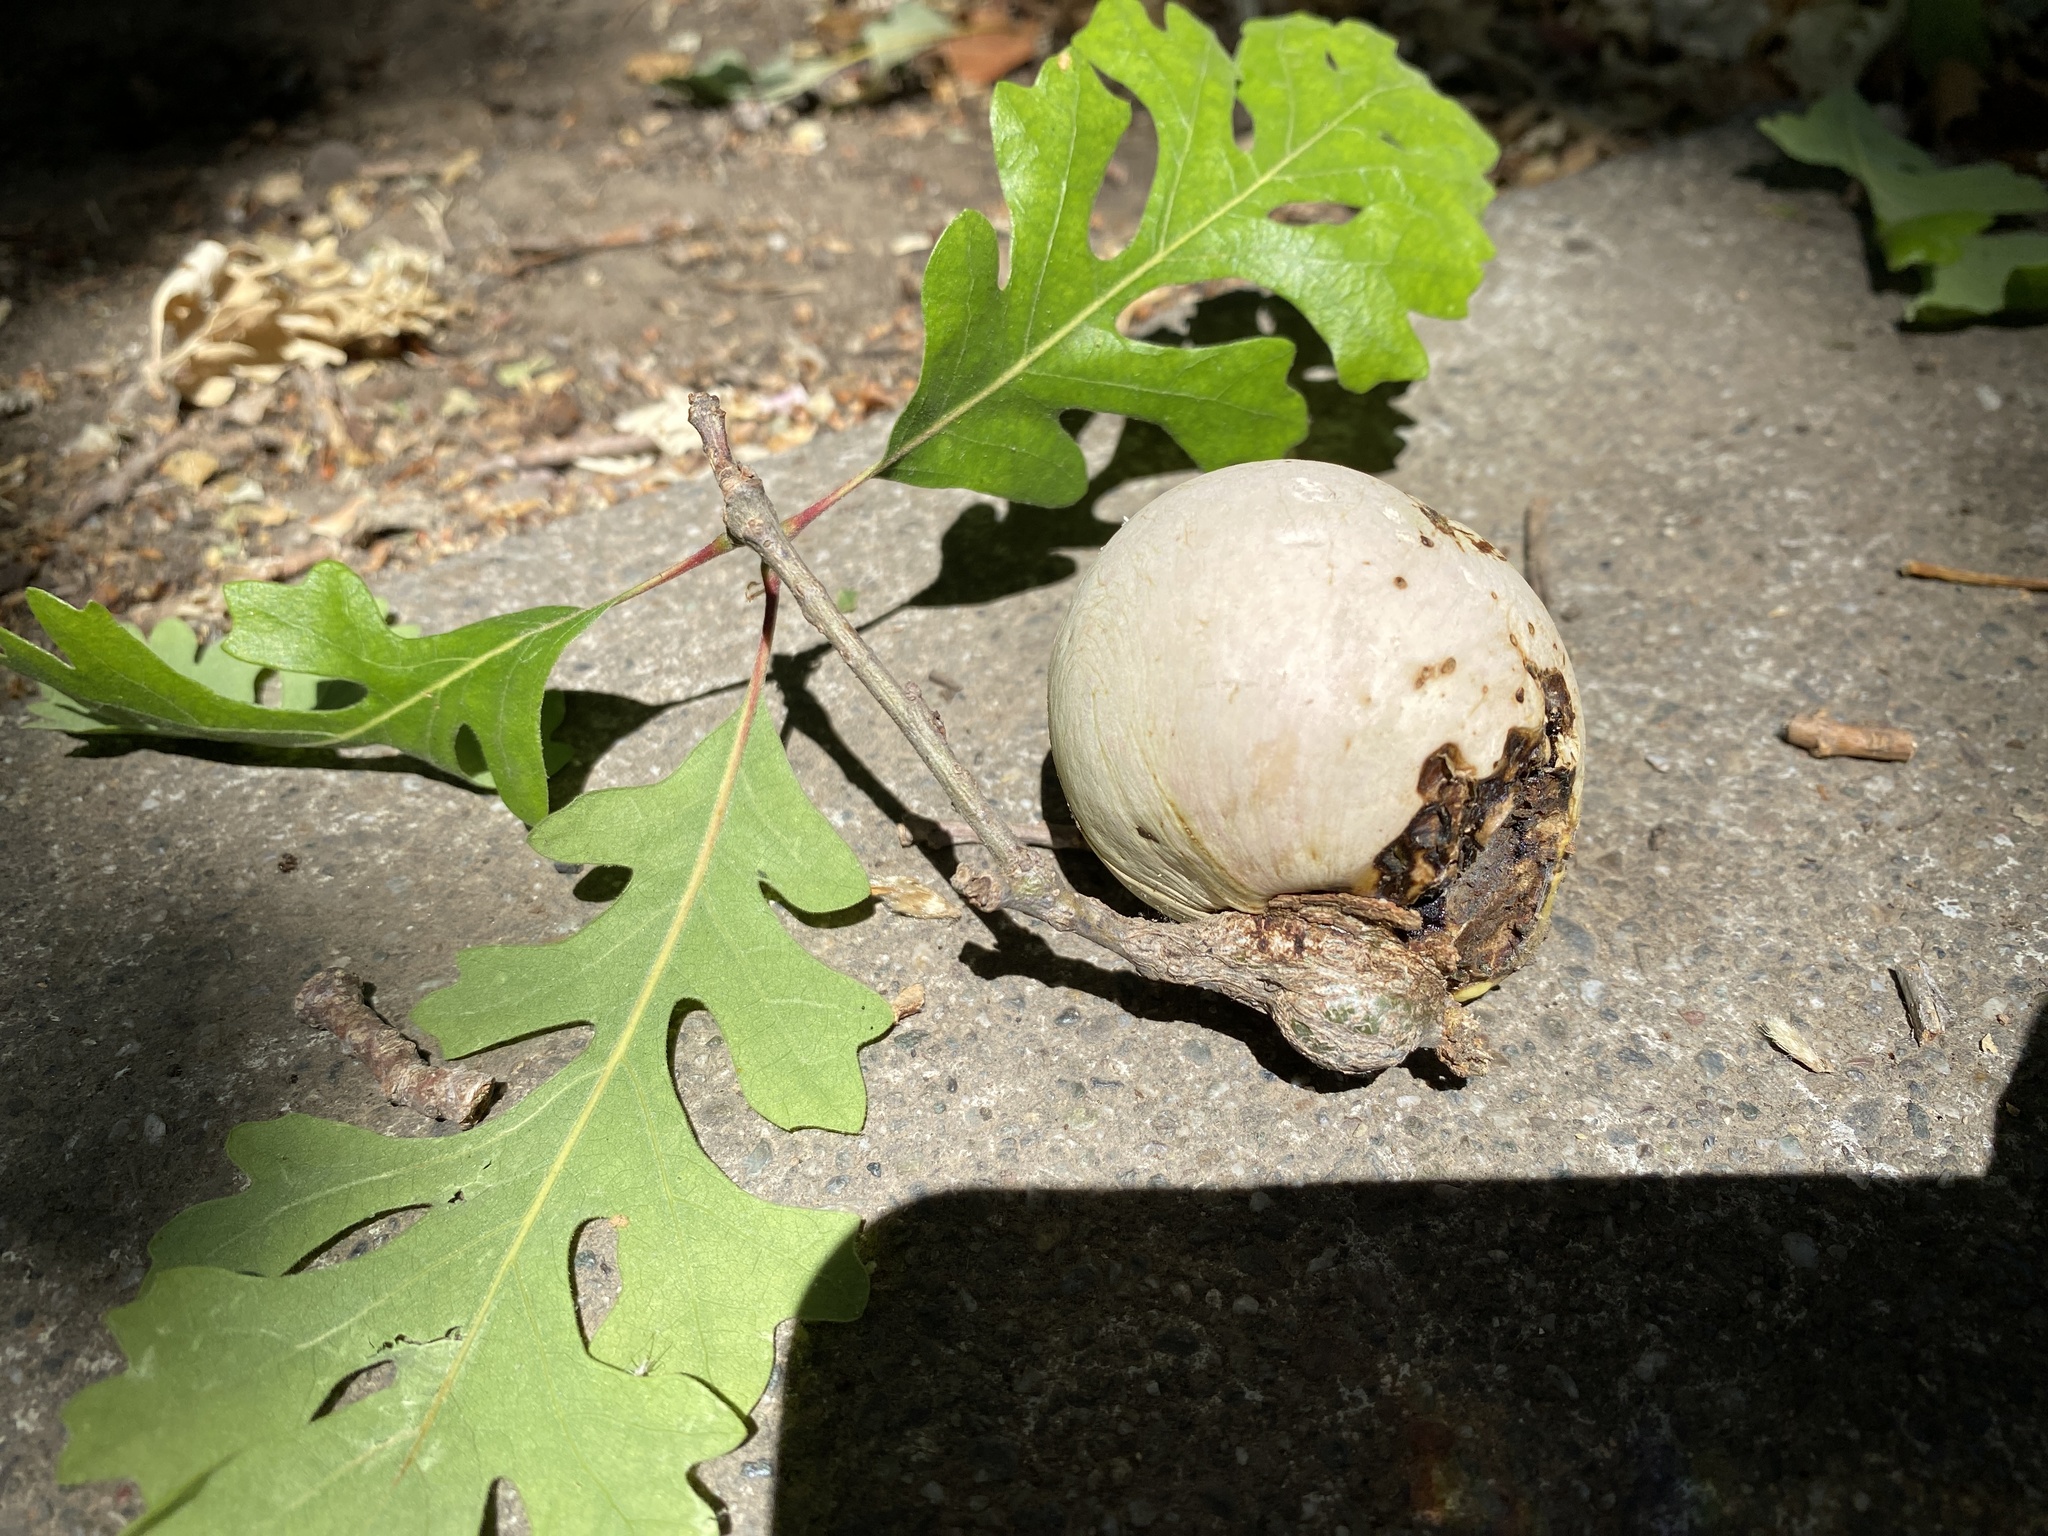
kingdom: Animalia
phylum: Arthropoda
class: Insecta
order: Hymenoptera
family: Cynipidae
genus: Andricus
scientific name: Andricus quercuscalifornicus
